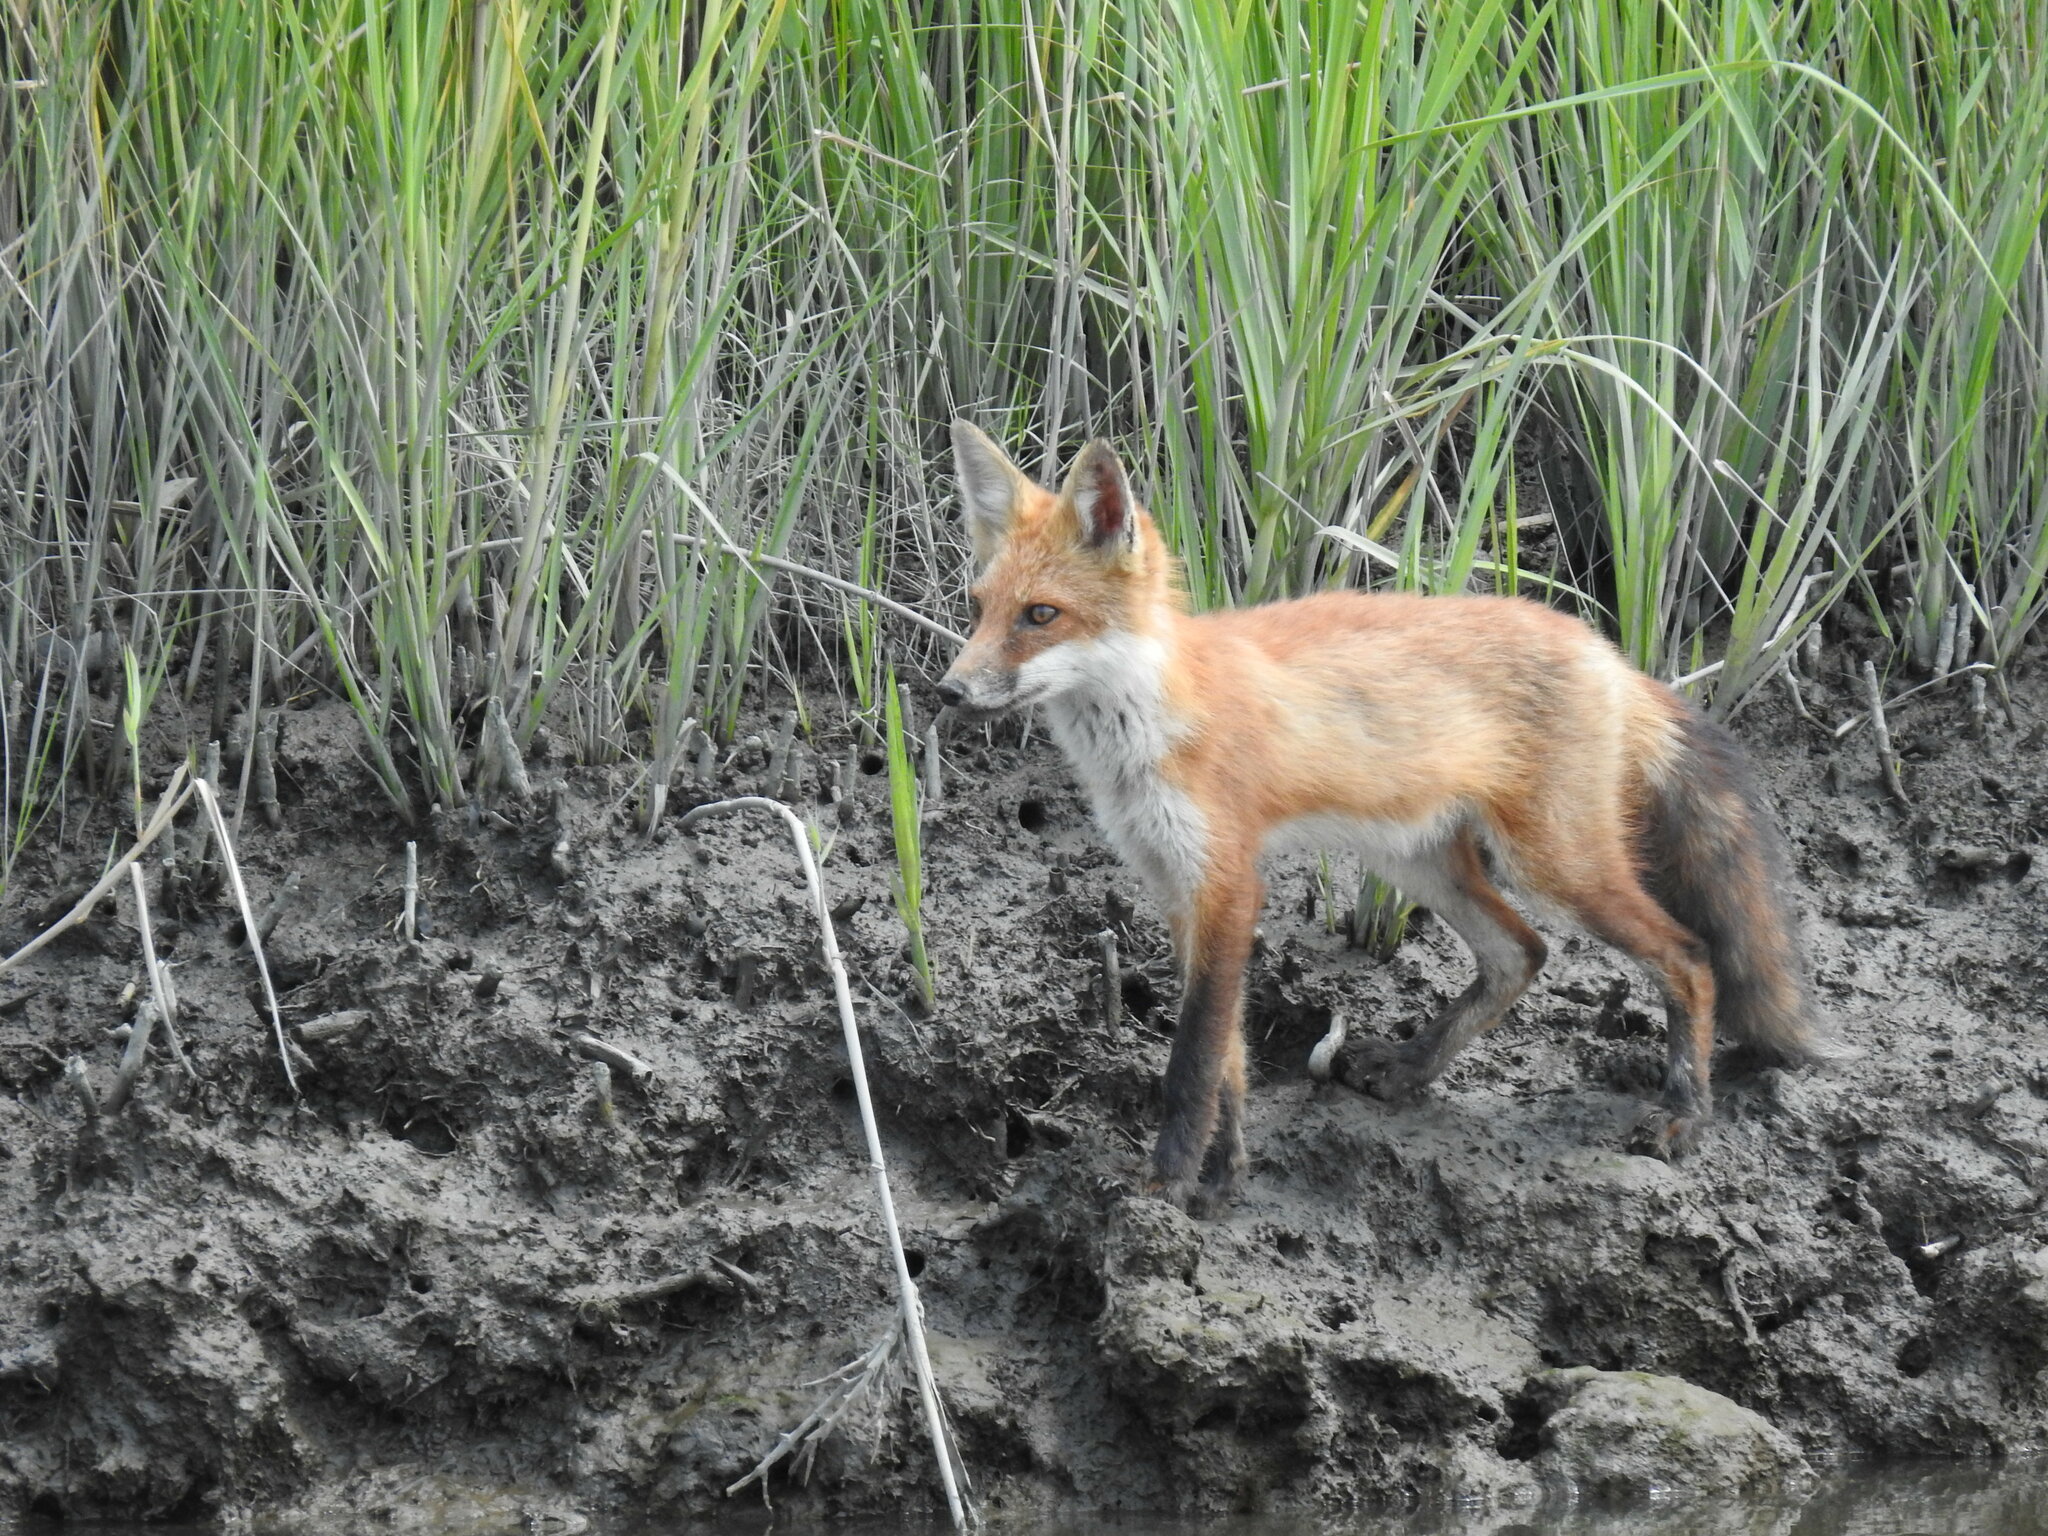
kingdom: Animalia
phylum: Chordata
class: Mammalia
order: Carnivora
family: Canidae
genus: Vulpes
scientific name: Vulpes vulpes
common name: Red fox
